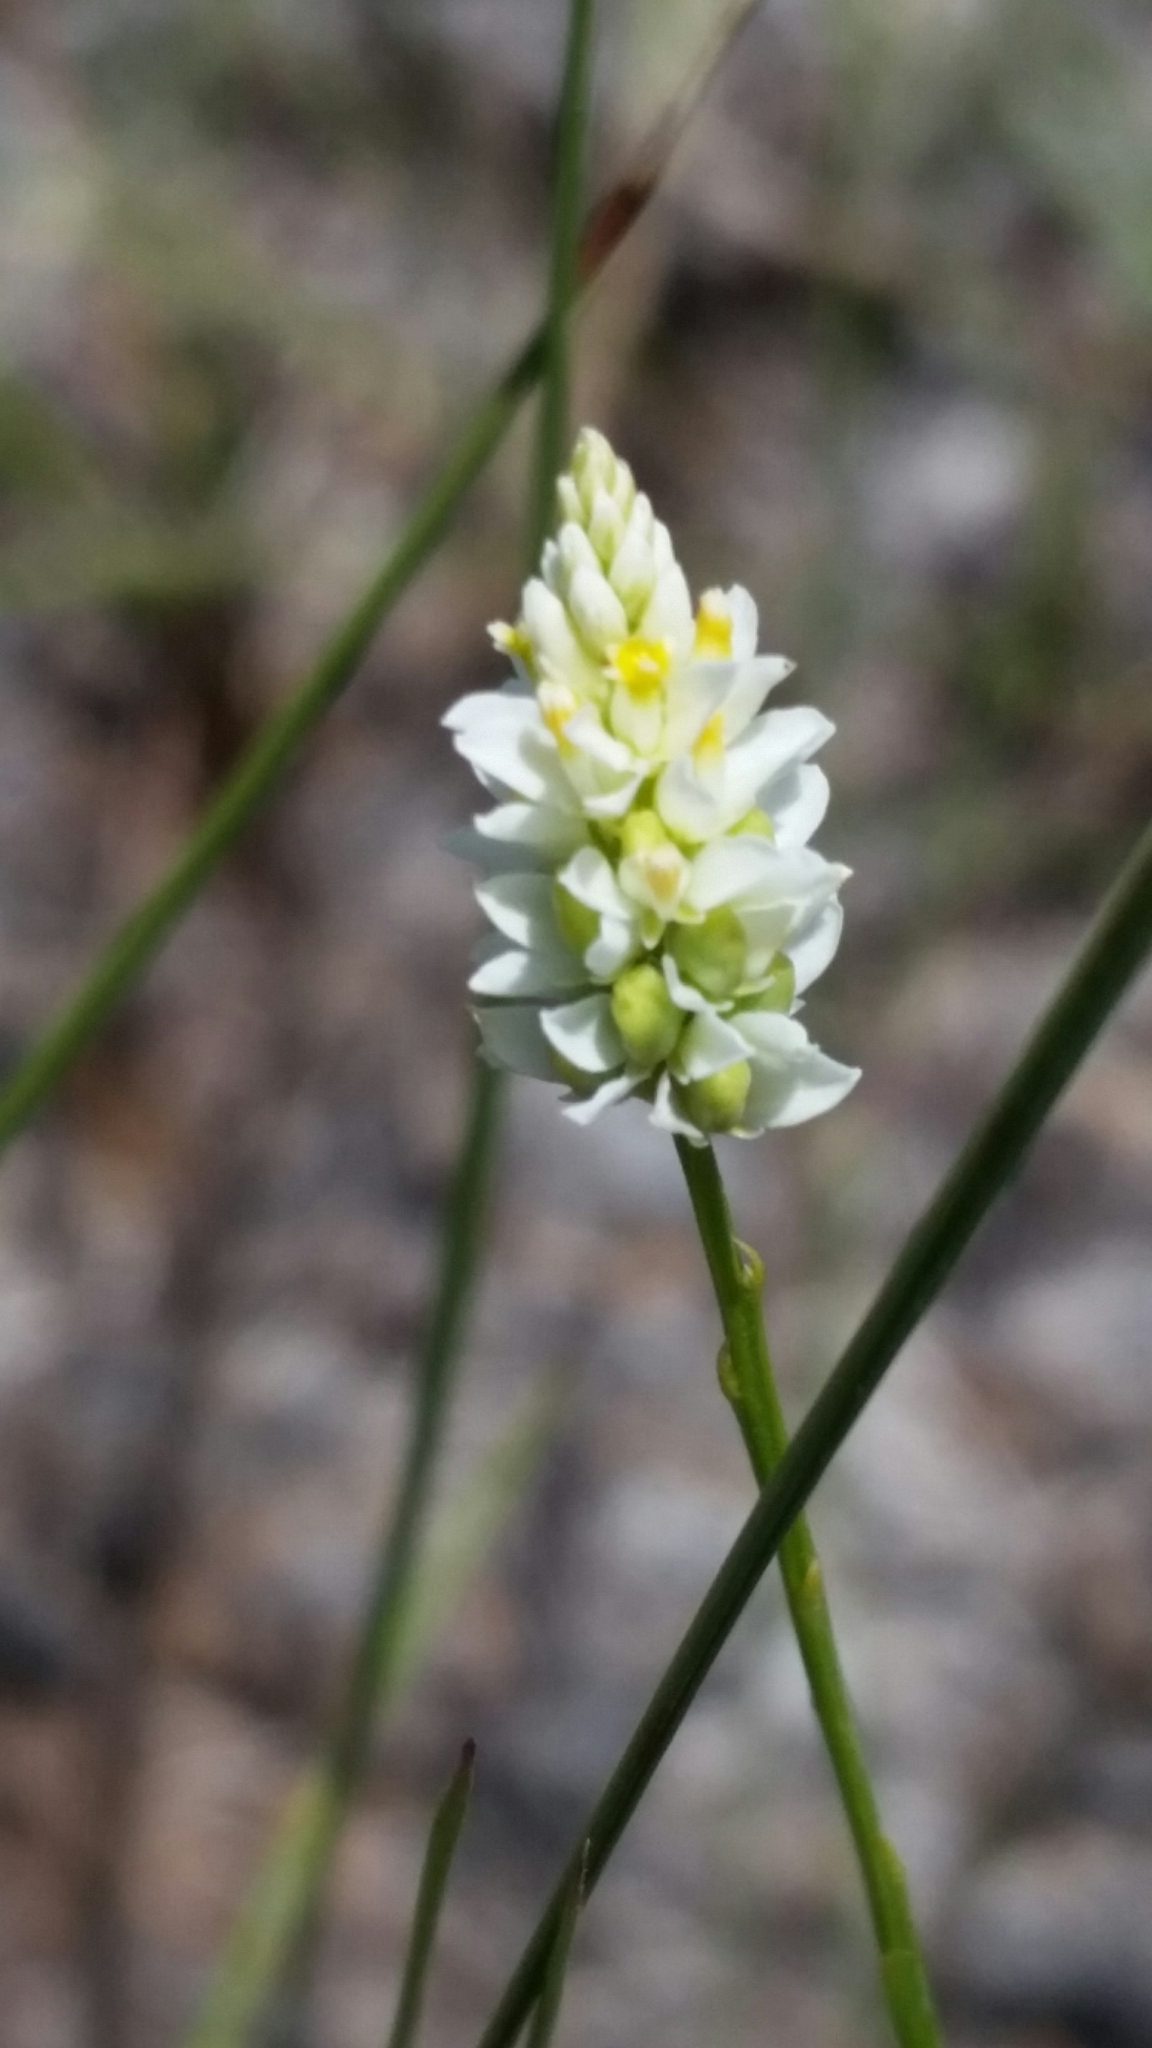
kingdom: Plantae
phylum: Tracheophyta
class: Magnoliopsida
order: Fabales
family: Polygalaceae
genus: Polygala
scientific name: Polygala setacea
